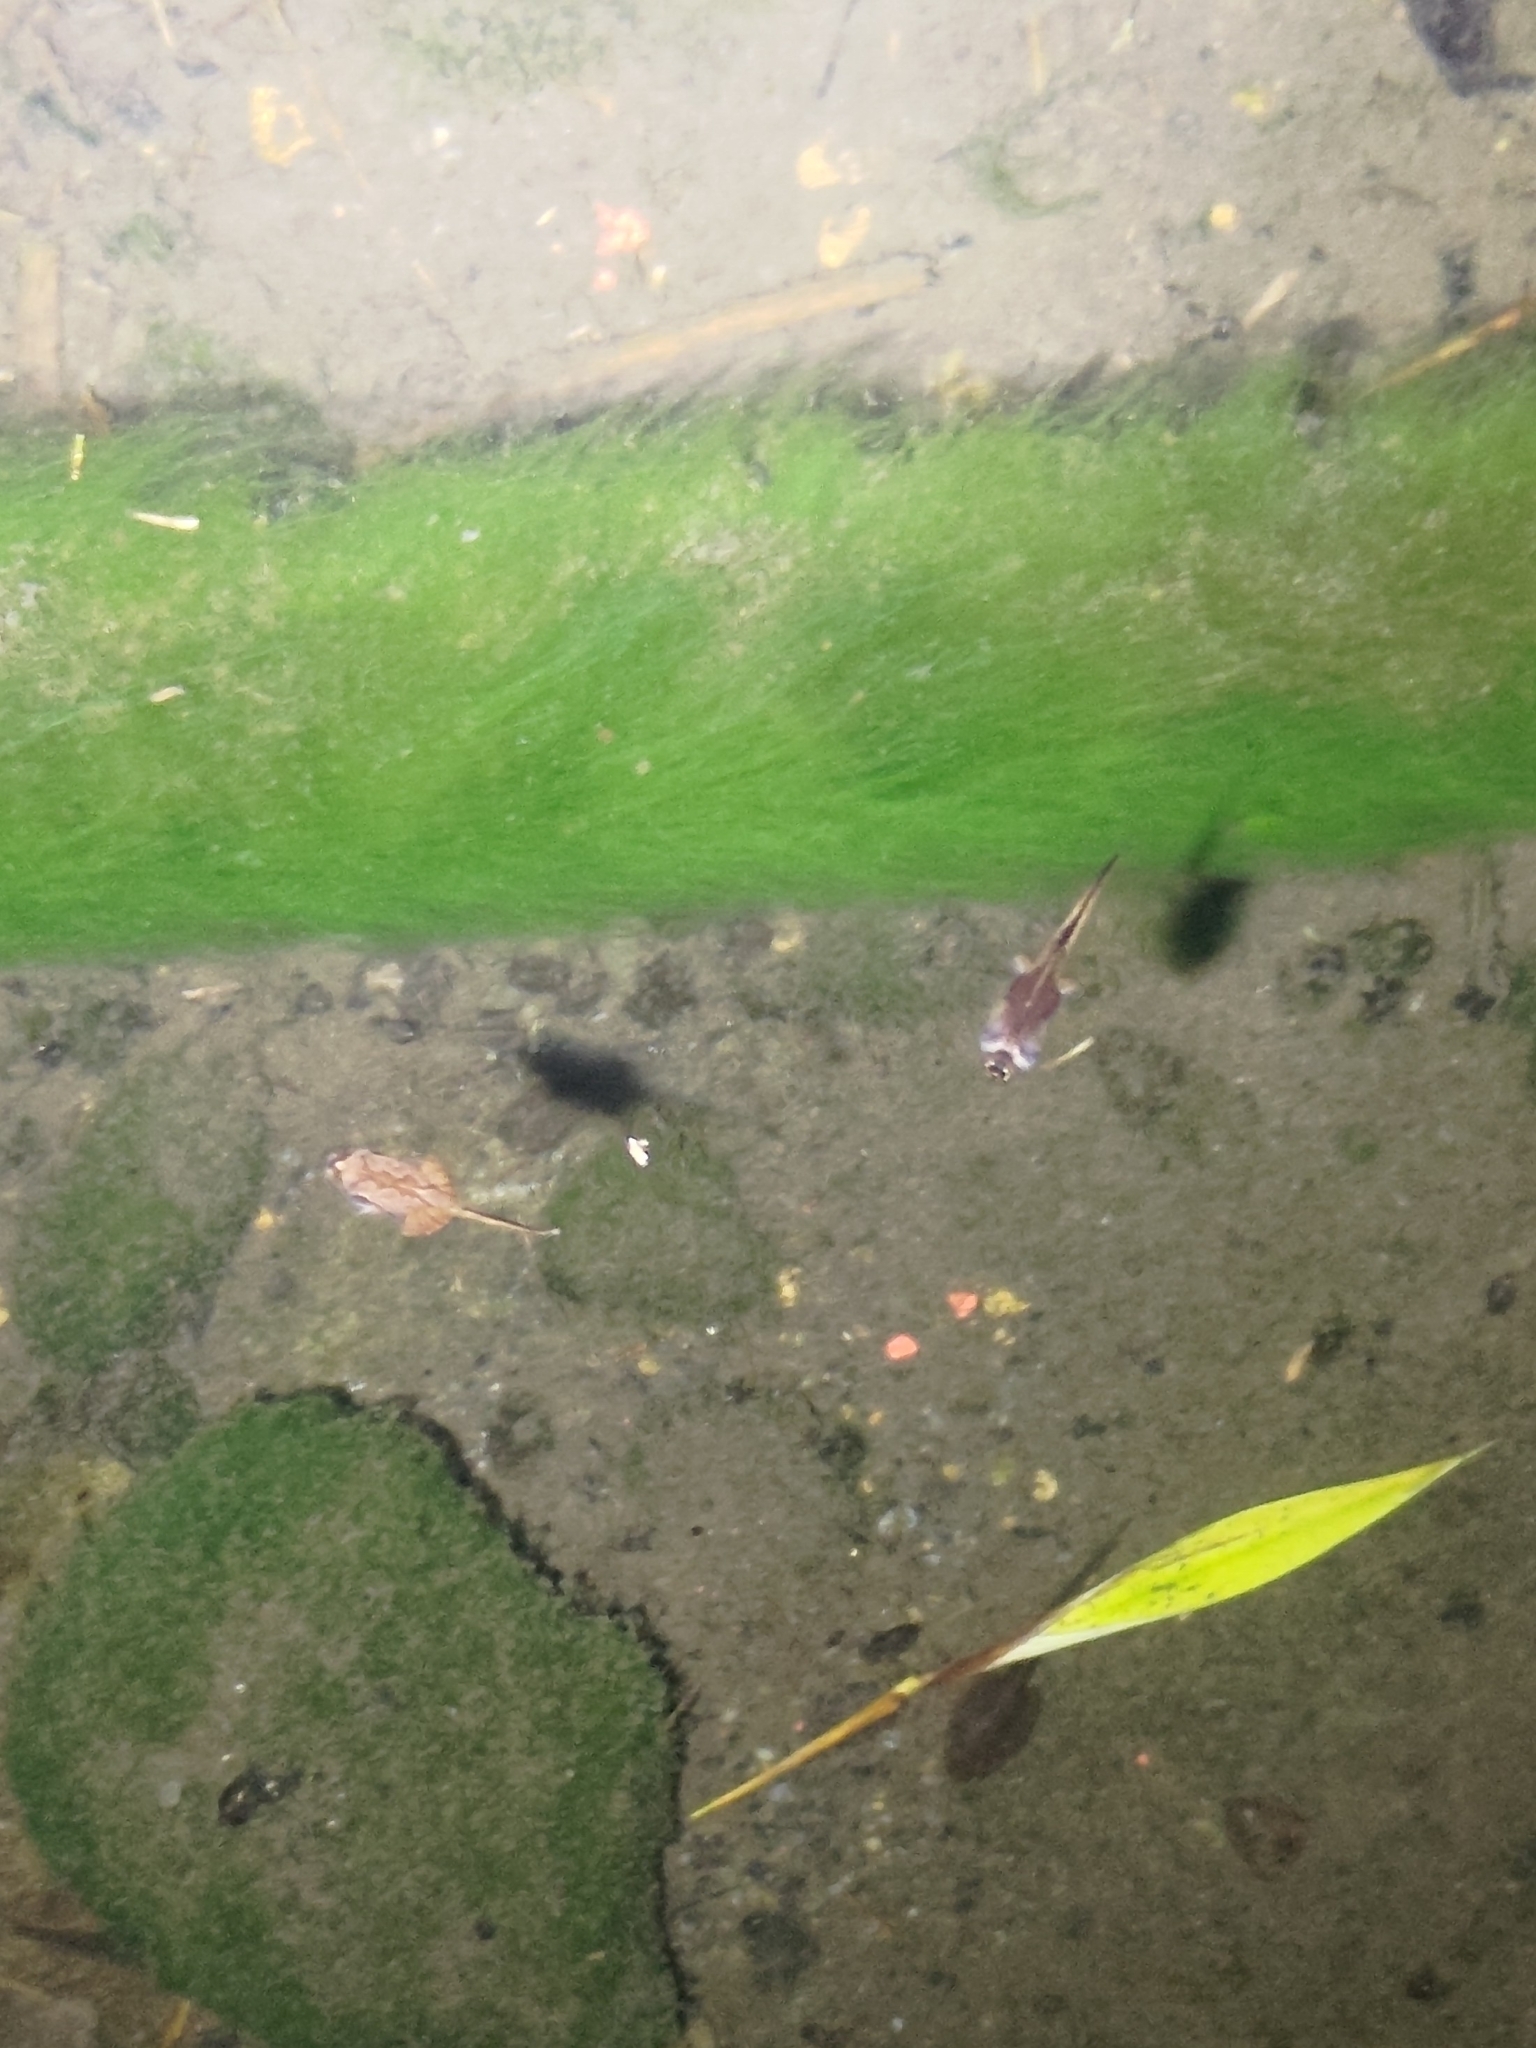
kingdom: Animalia
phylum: Chordata
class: Amphibia
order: Anura
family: Microhylidae
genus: Microhyla
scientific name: Microhyla heymonsi
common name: Taiwan rice frog,dark sided chorus frog
